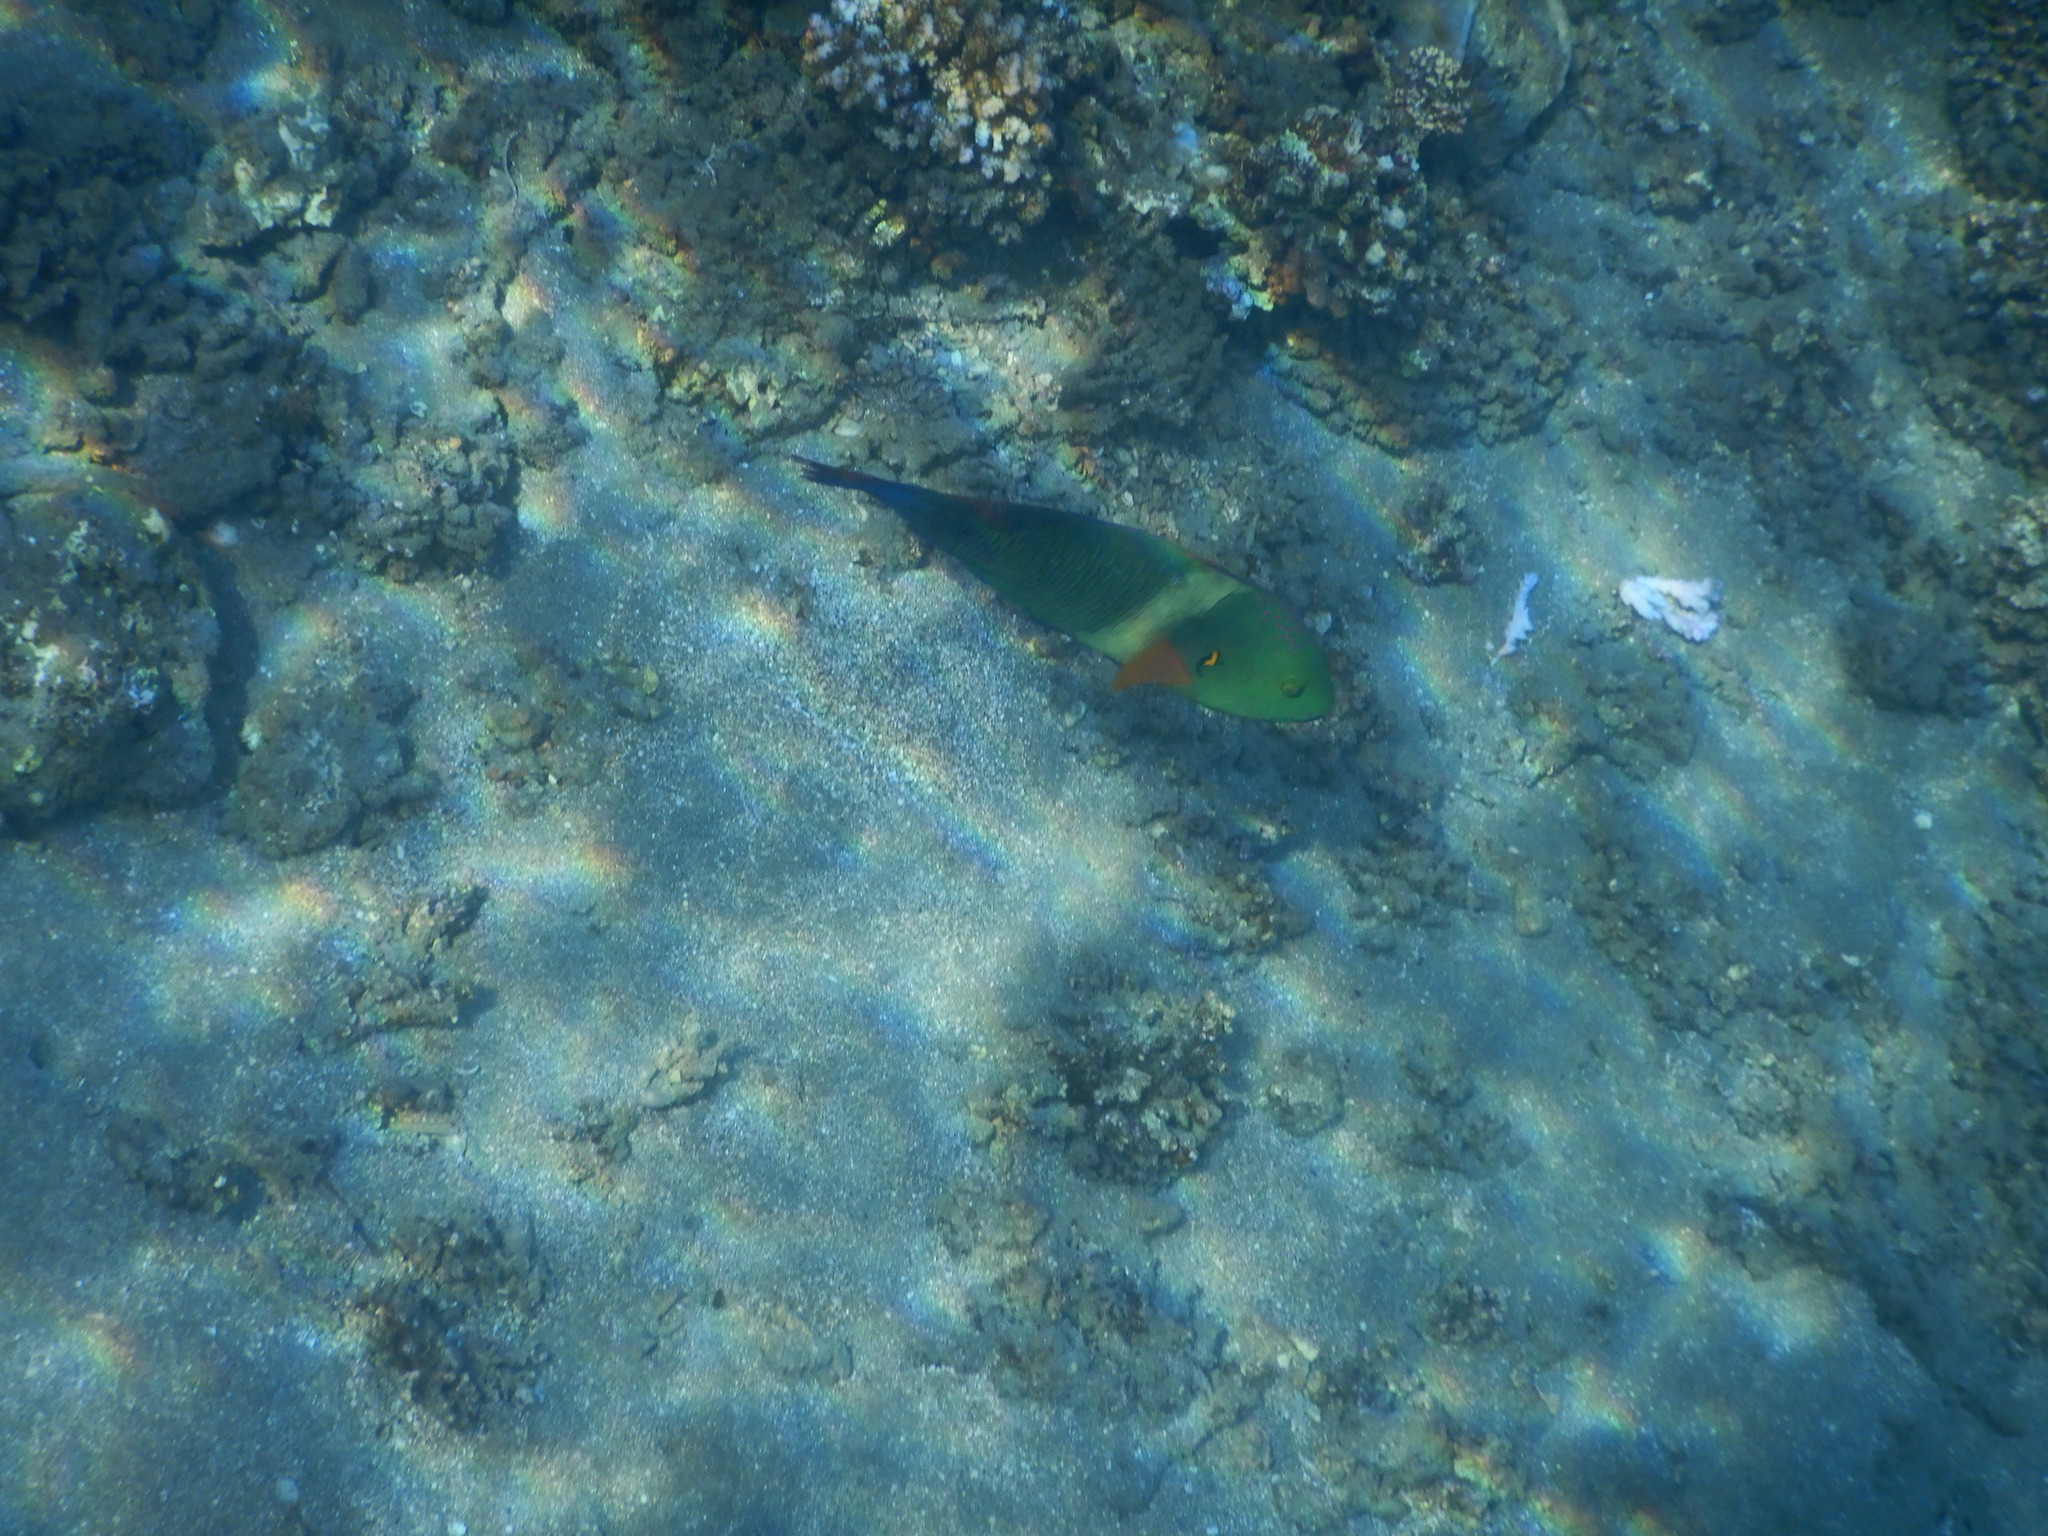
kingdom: Animalia
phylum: Chordata
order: Perciformes
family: Labridae
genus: Cheilinus
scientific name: Cheilinus lunulatus
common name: Broomtail wrasse
